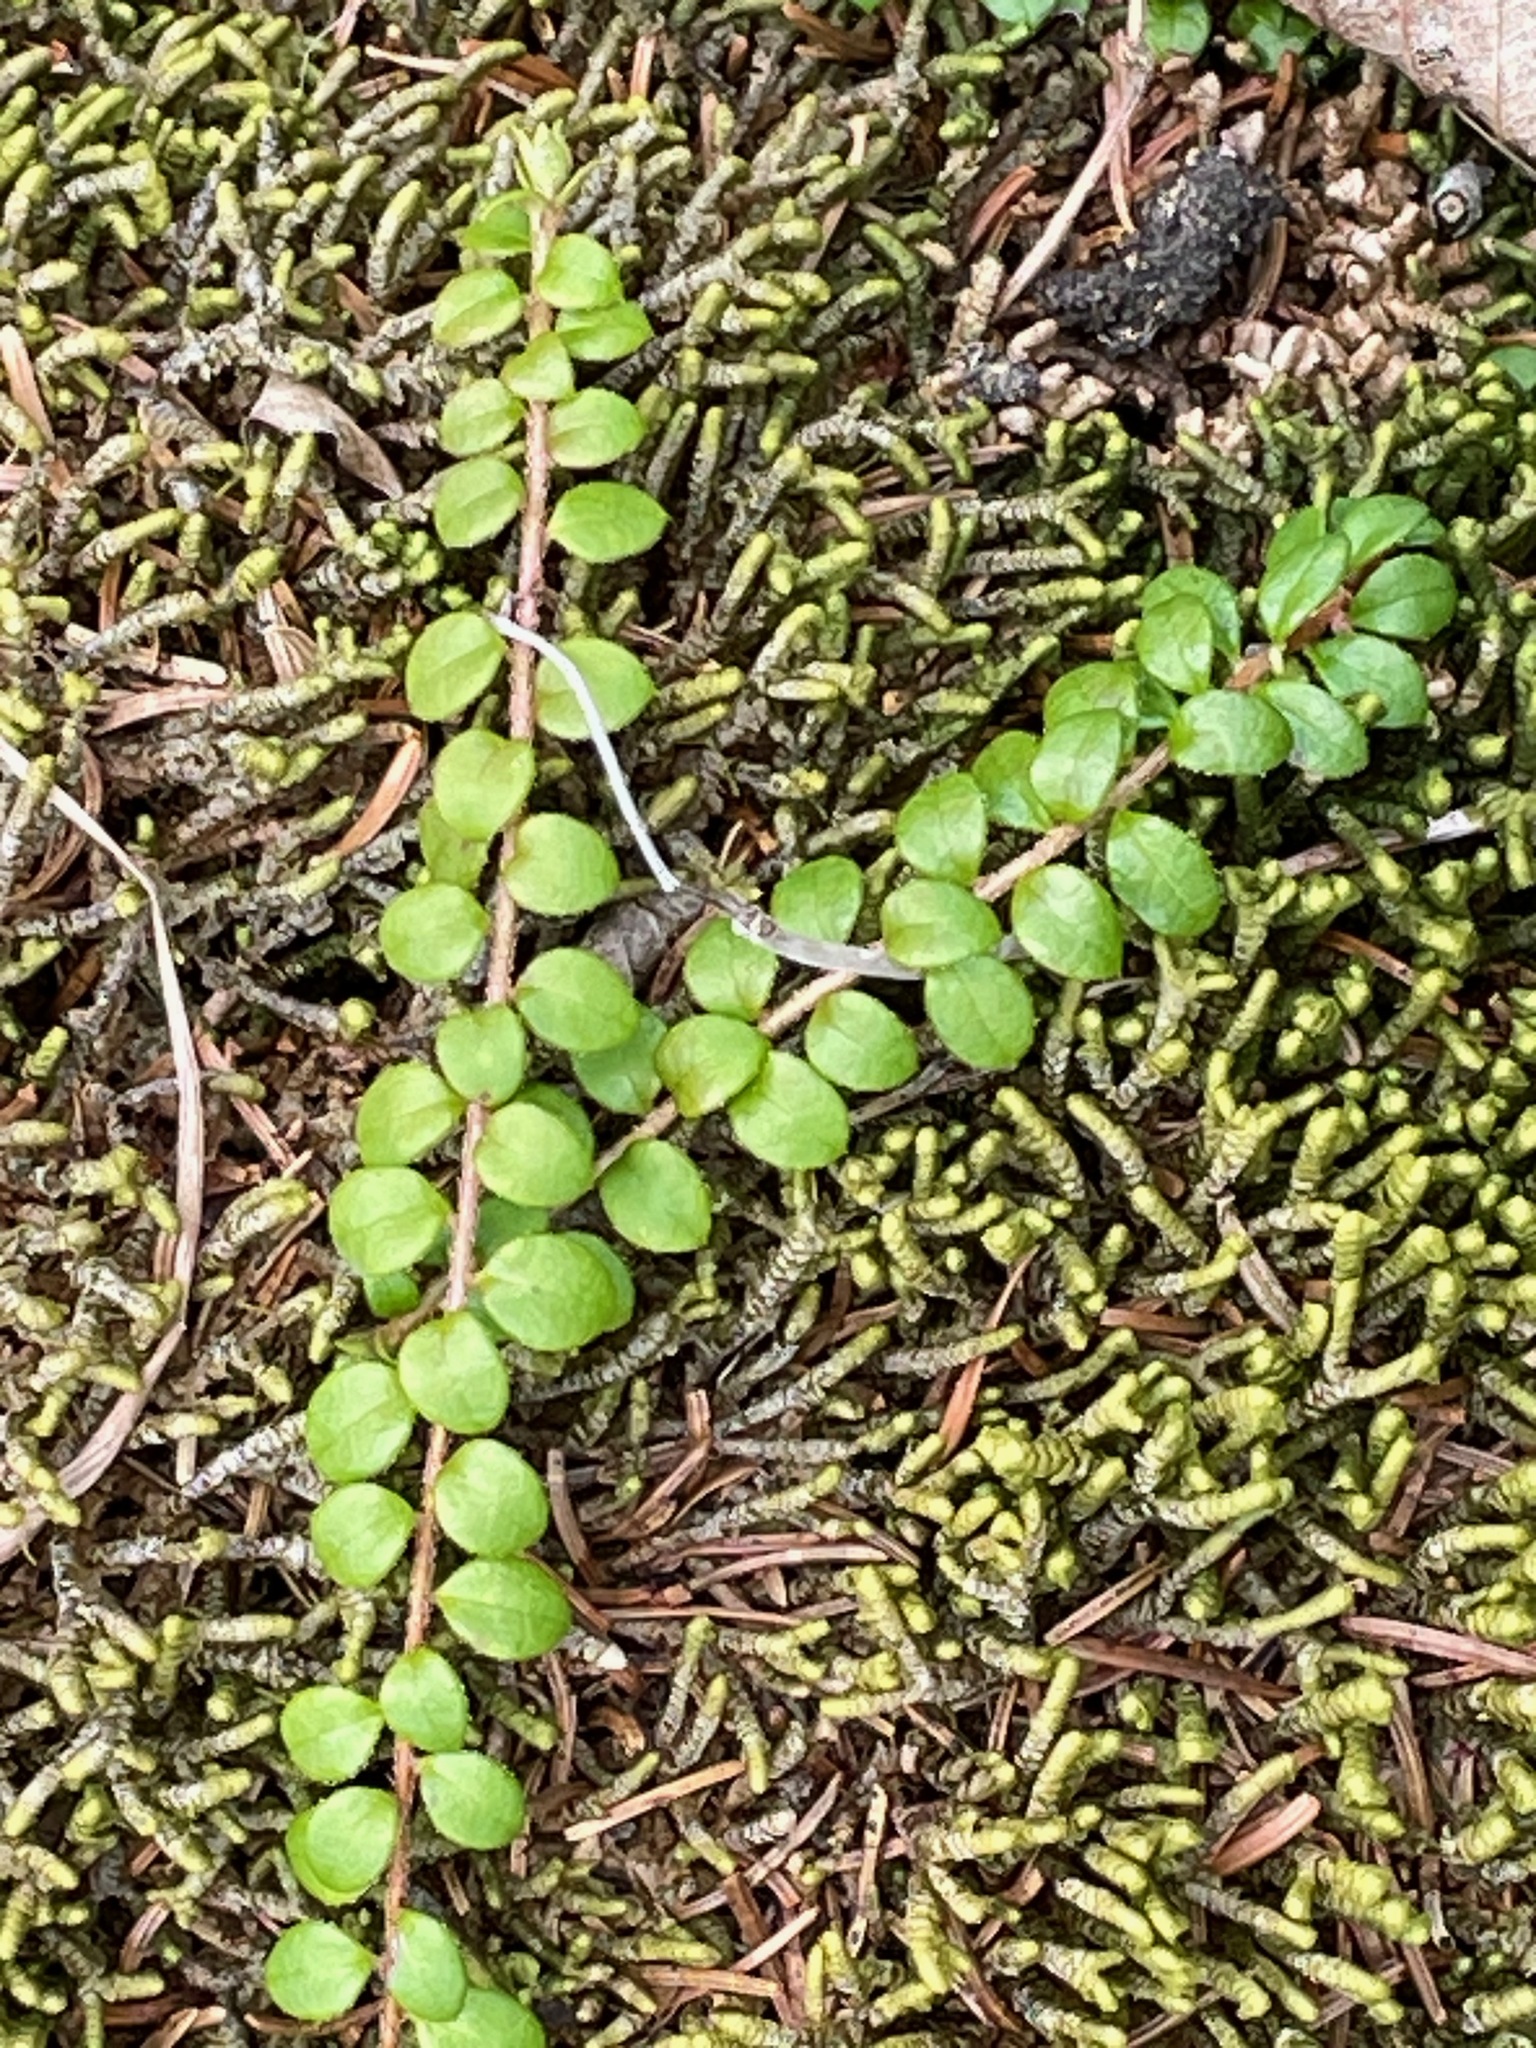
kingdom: Plantae
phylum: Tracheophyta
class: Magnoliopsida
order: Ericales
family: Ericaceae
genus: Gaultheria
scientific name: Gaultheria hispidula
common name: Cancer wintergreen
